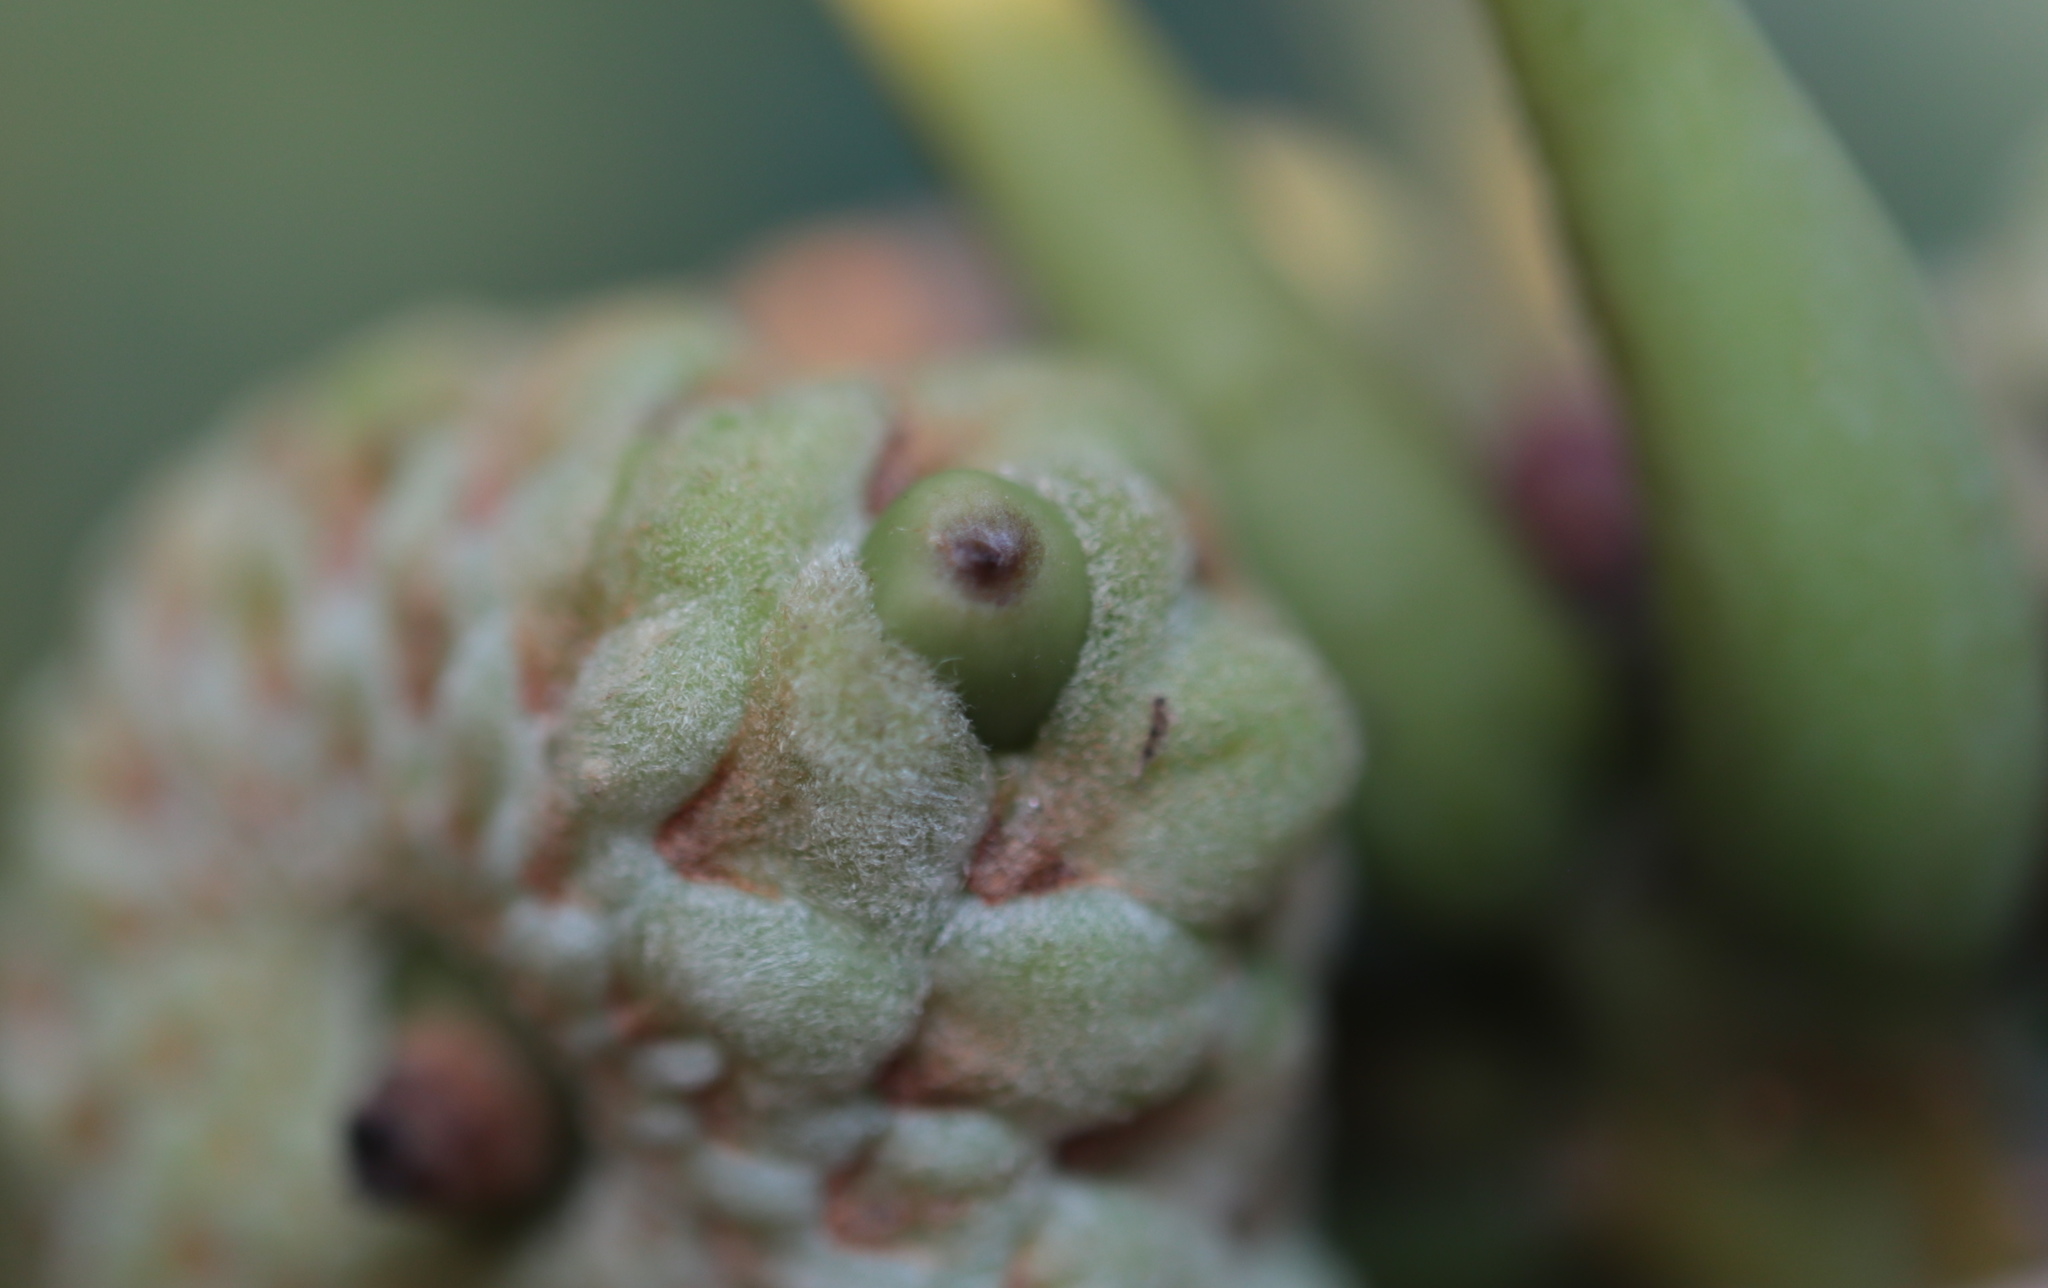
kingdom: Animalia
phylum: Arthropoda
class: Insecta
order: Hymenoptera
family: Cynipidae
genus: Callirhytis
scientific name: Callirhytis glandium
